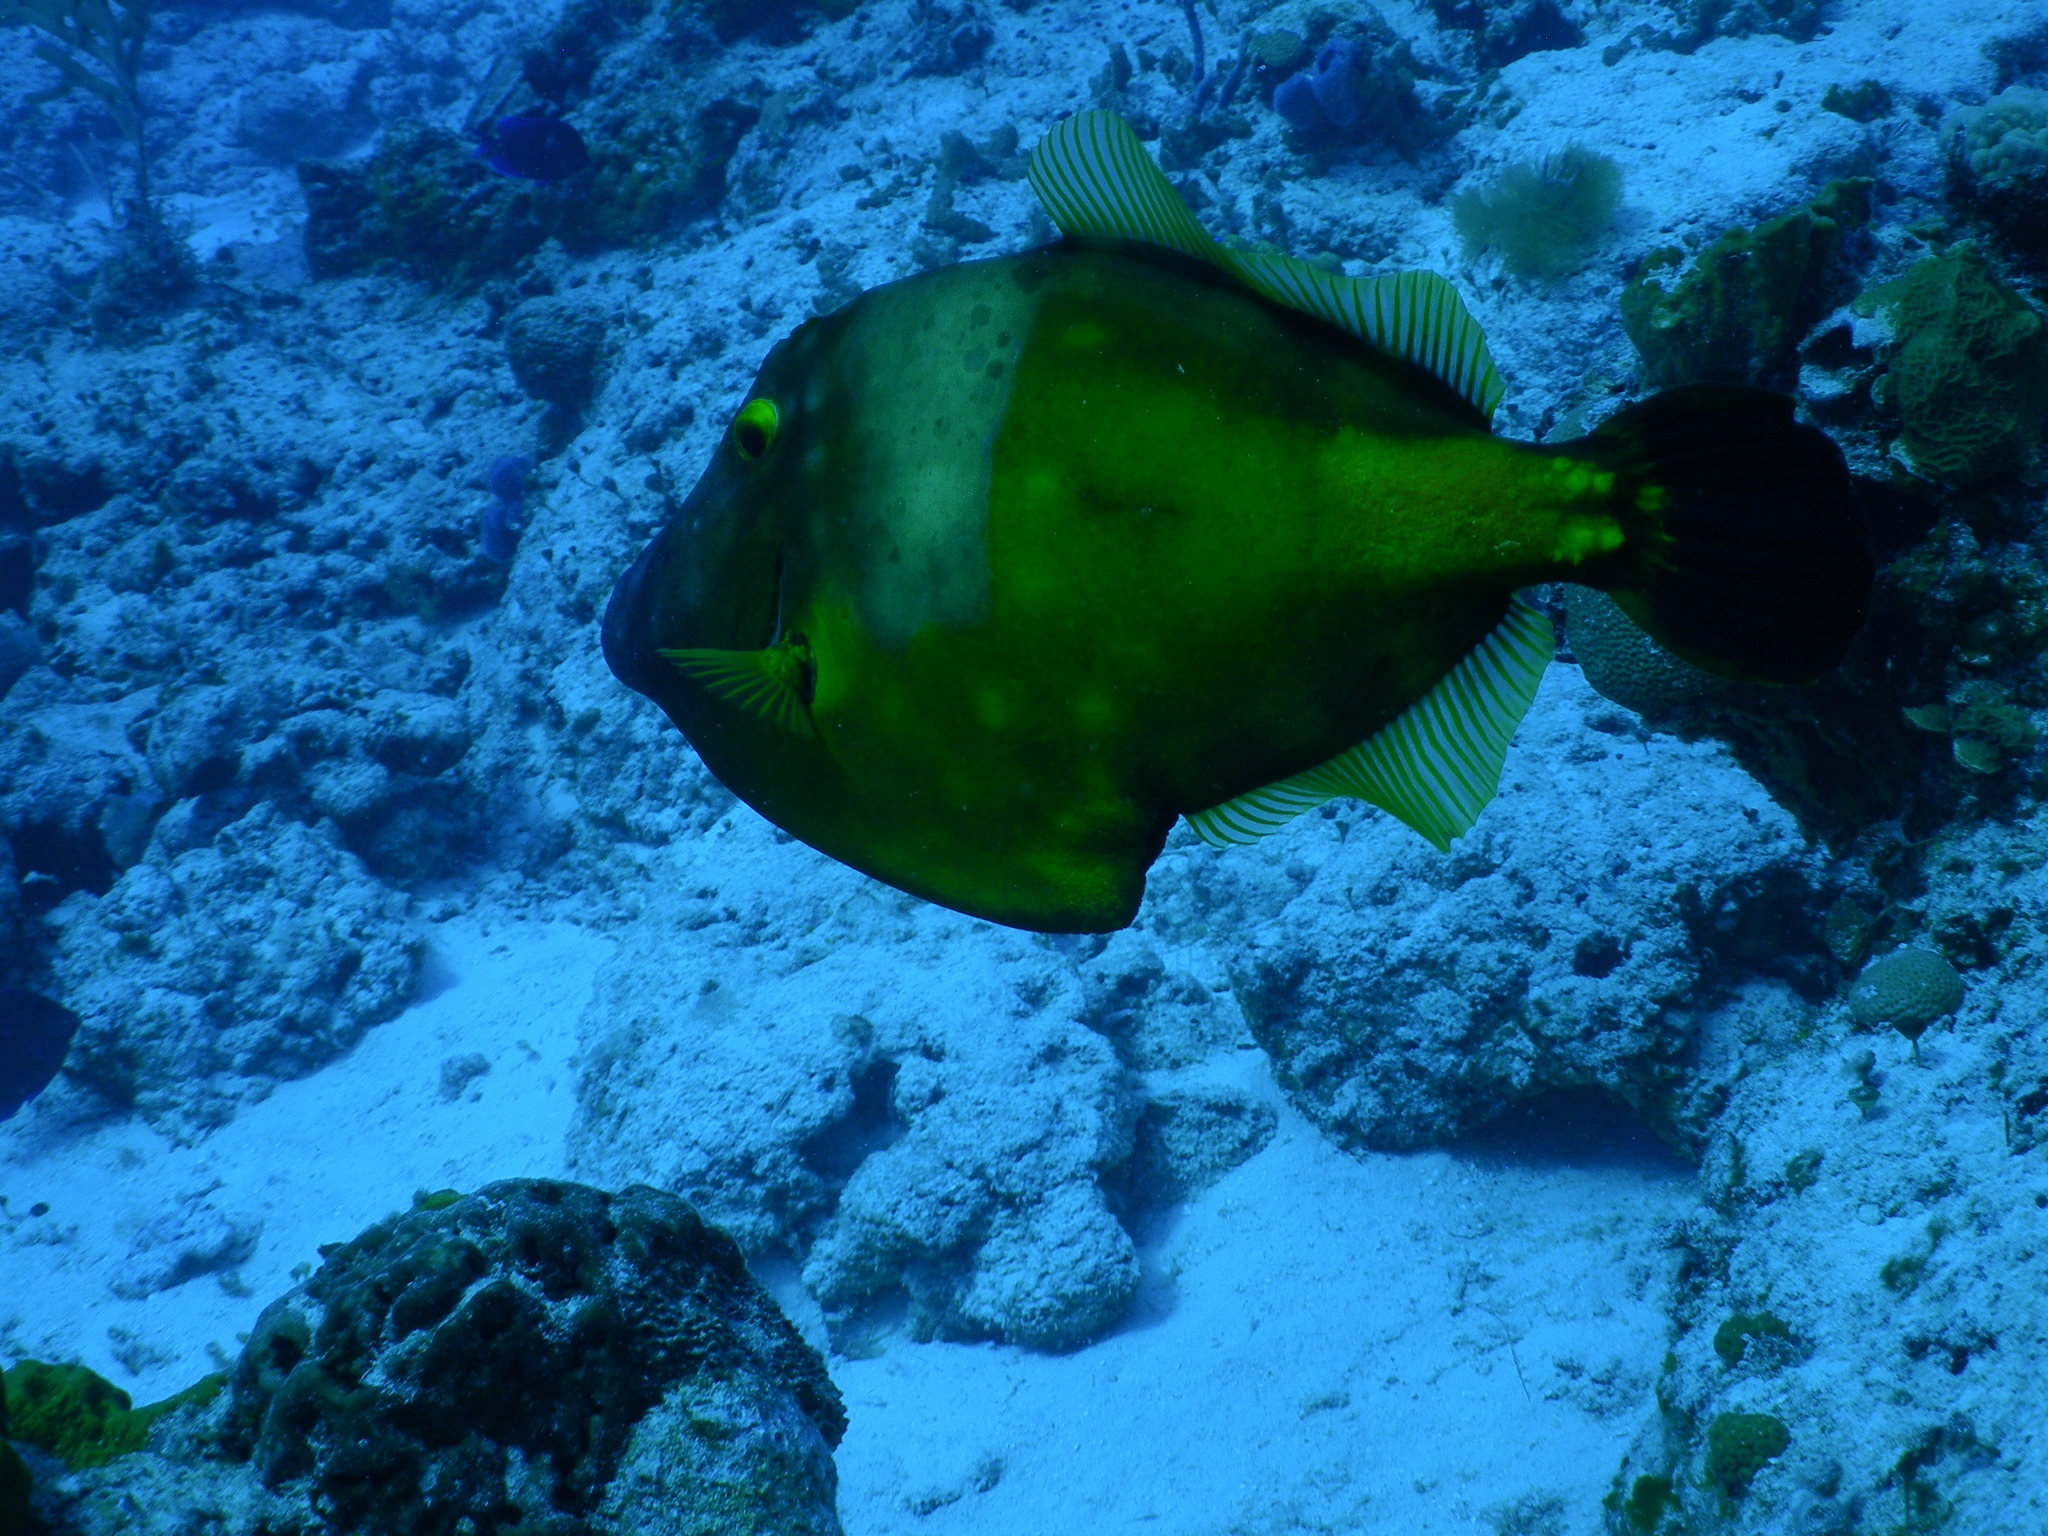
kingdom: Animalia
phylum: Chordata
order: Tetraodontiformes
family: Monacanthidae
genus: Cantherhines
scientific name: Cantherhines macrocerus
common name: Whitespotted filefish
